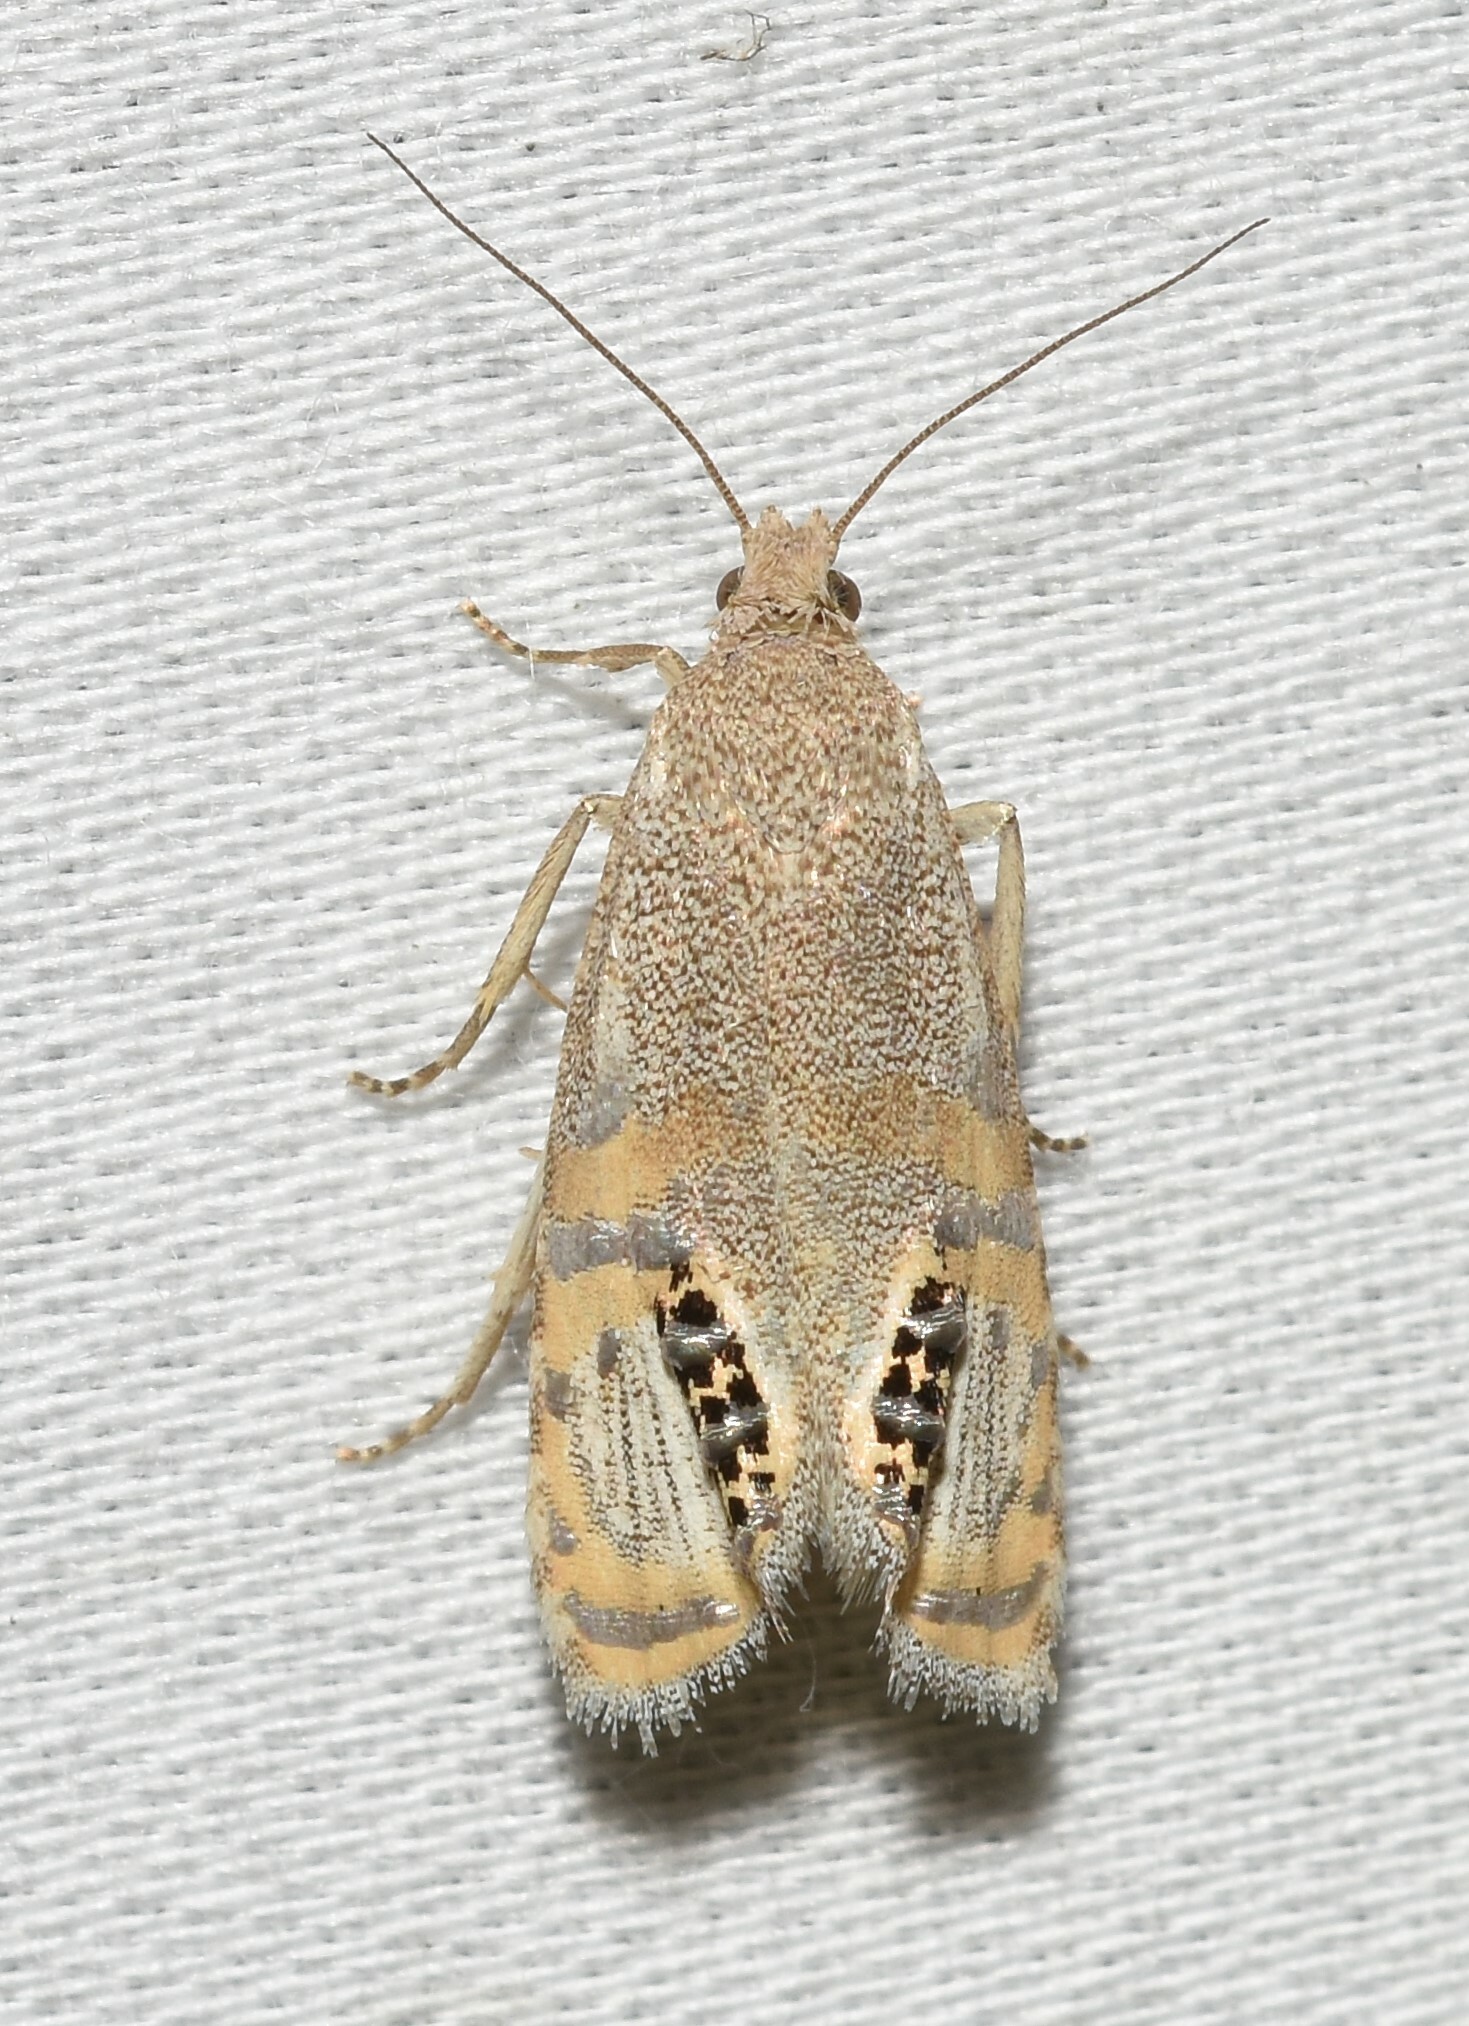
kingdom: Animalia
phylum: Arthropoda
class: Insecta
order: Lepidoptera
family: Tortricidae
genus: Pelochrista
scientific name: Pelochrista scintillana
